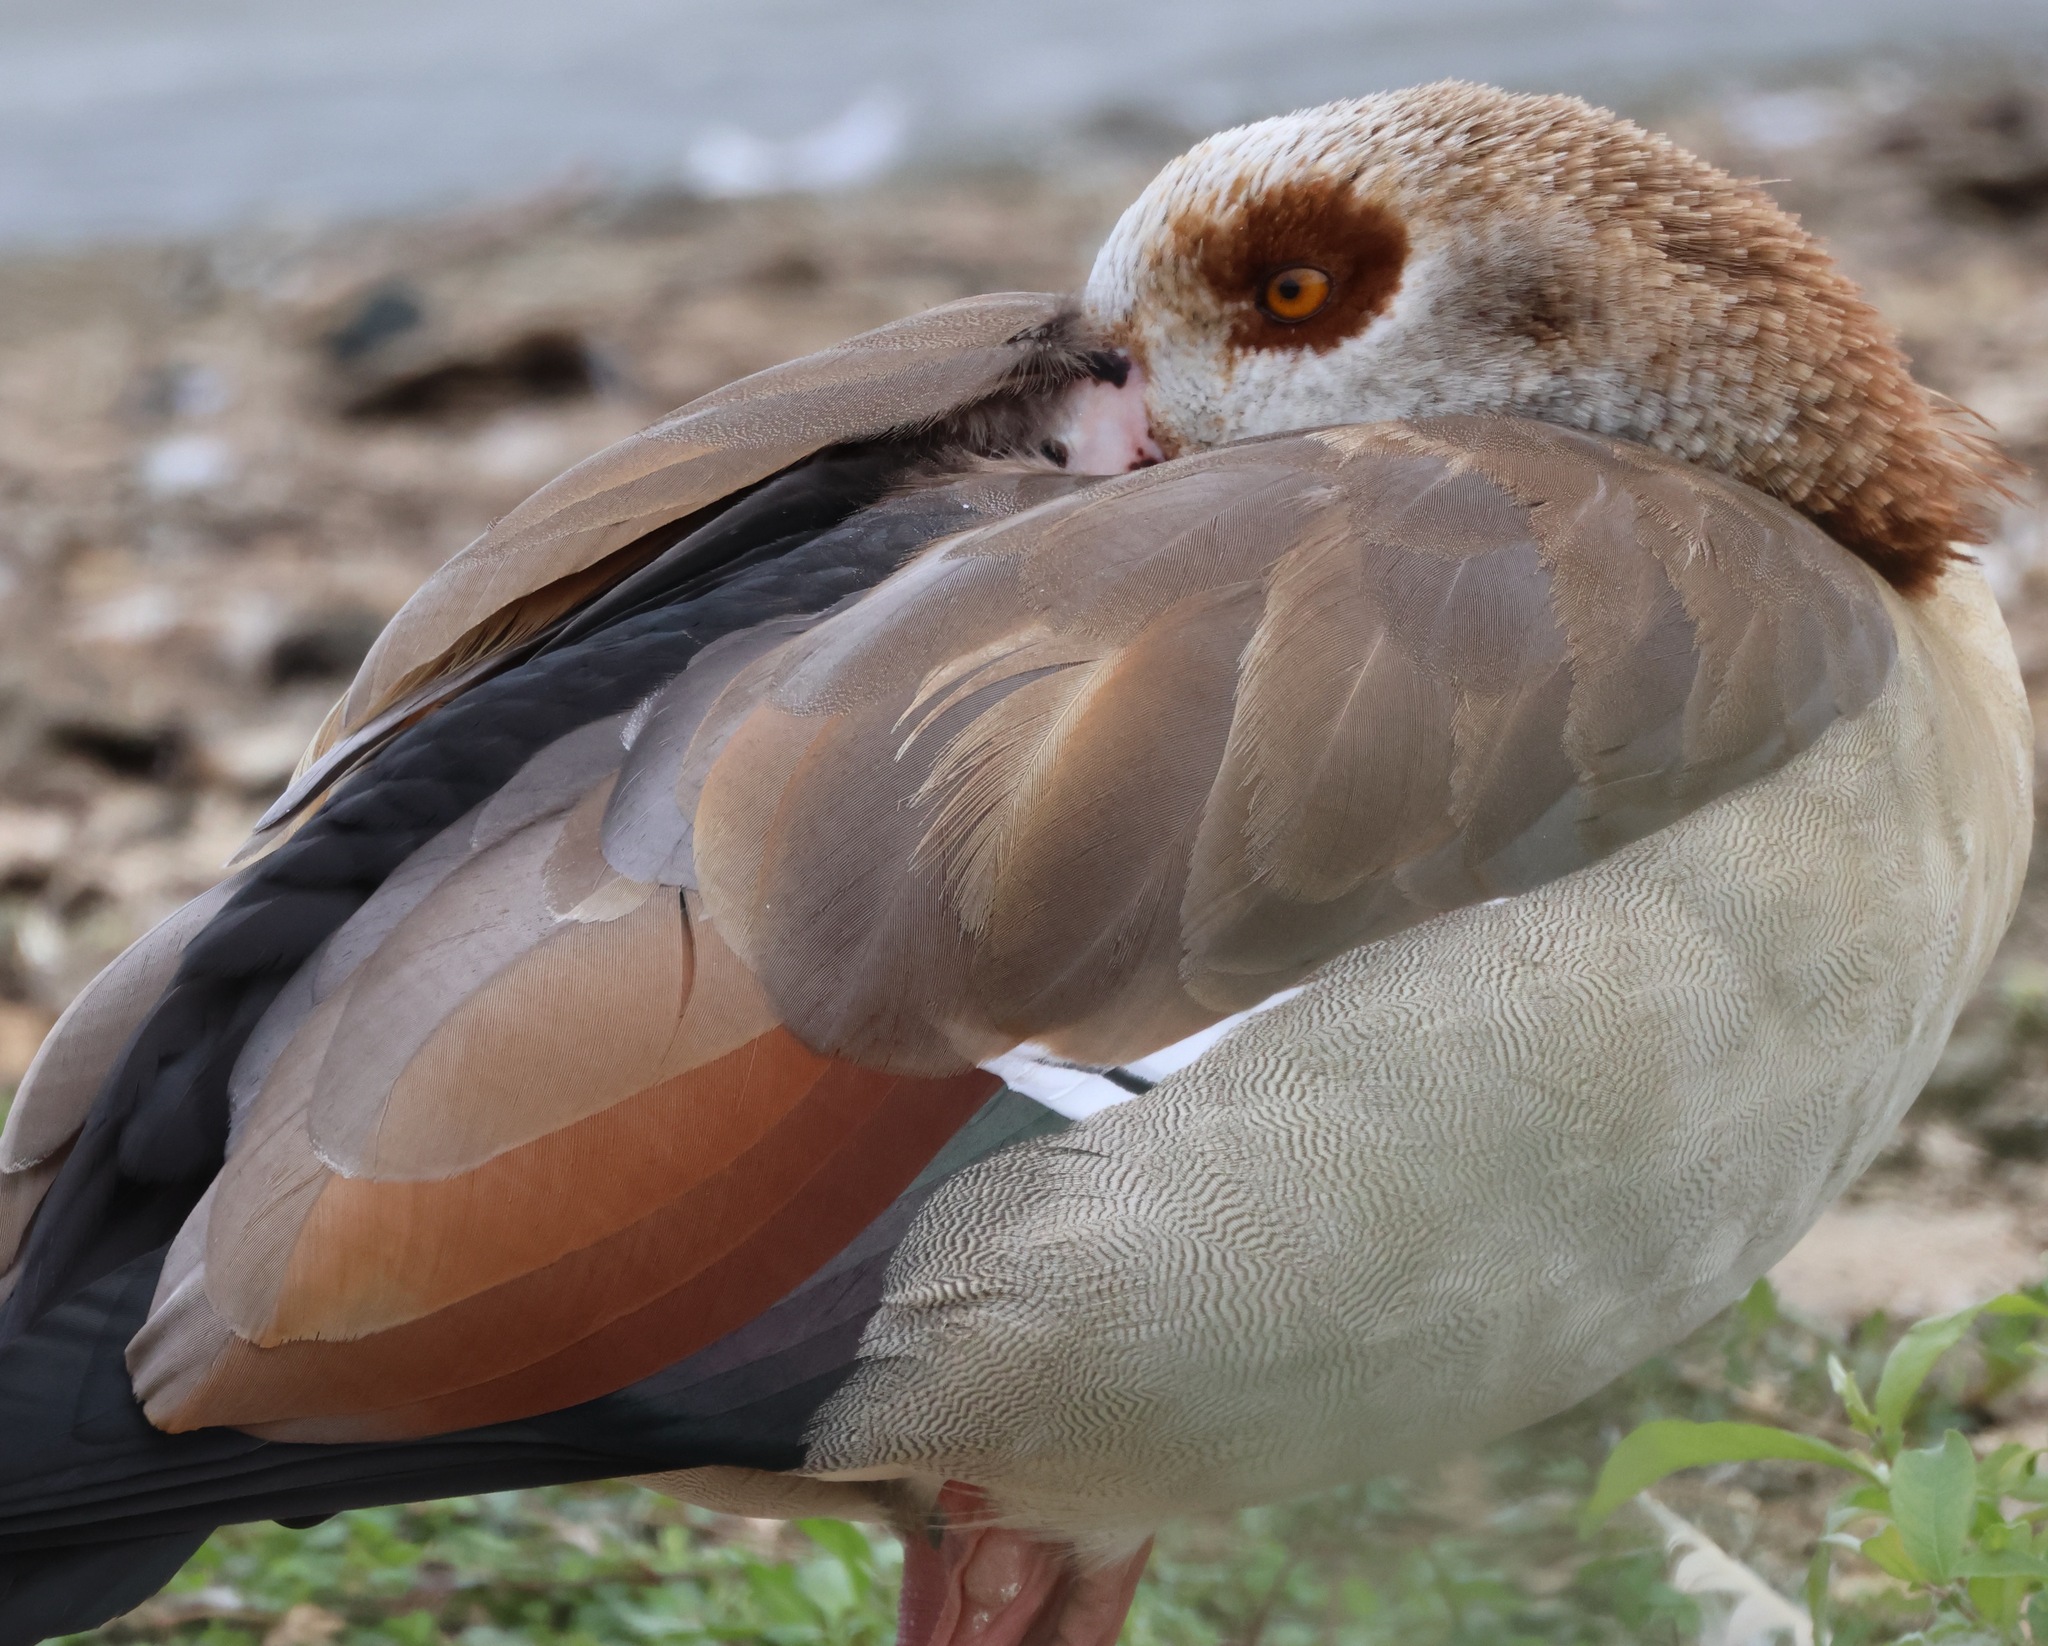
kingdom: Animalia
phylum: Chordata
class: Aves
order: Anseriformes
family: Anatidae
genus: Alopochen
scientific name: Alopochen aegyptiaca
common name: Egyptian goose
